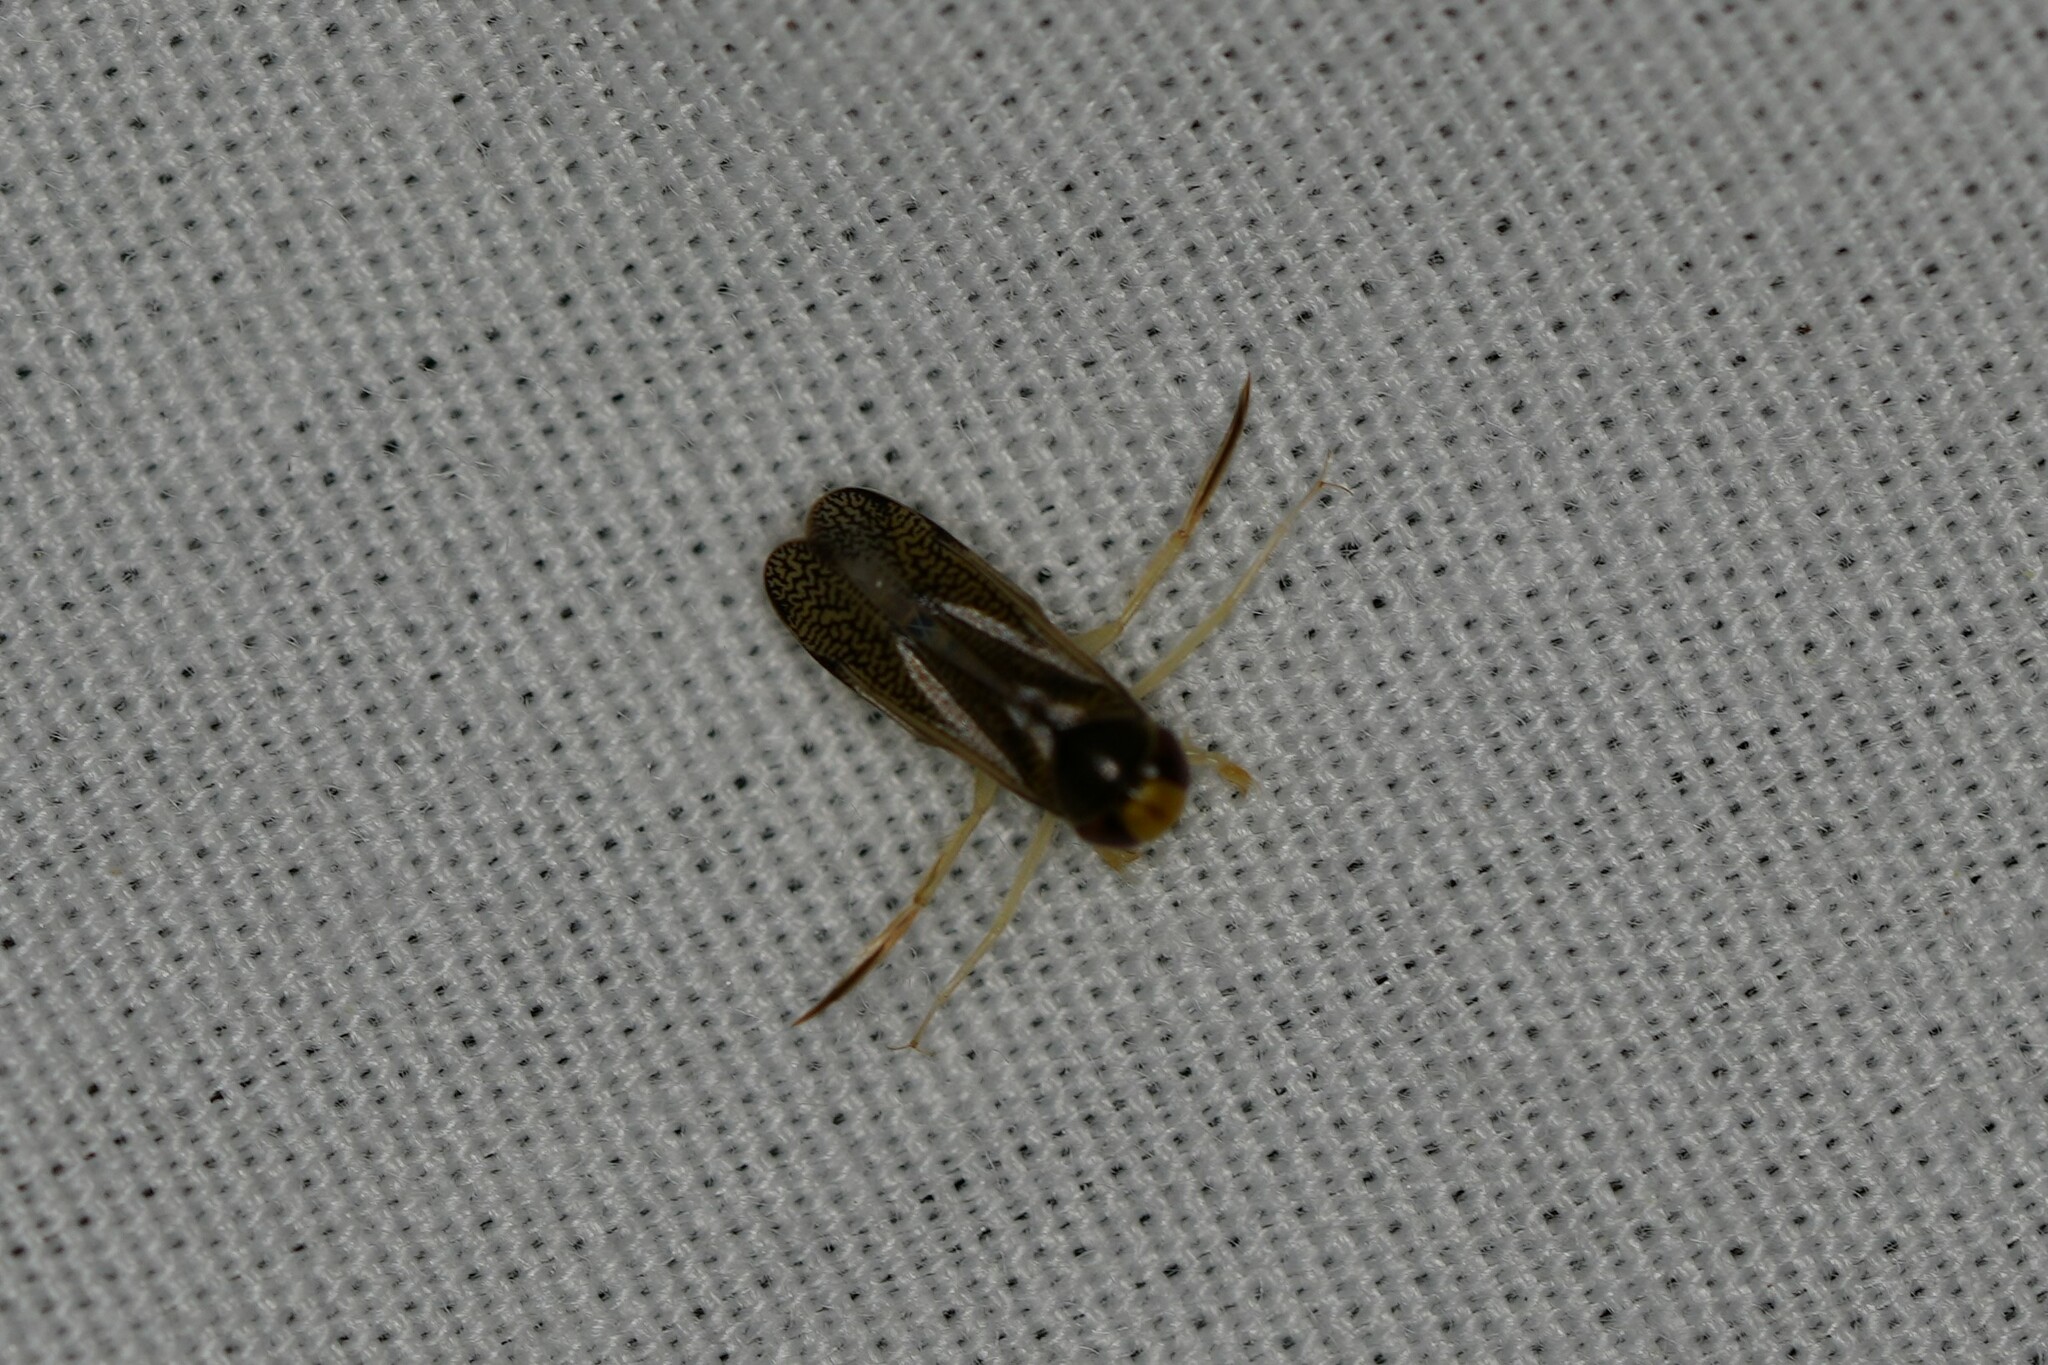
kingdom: Animalia
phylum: Arthropoda
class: Insecta
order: Hemiptera
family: Corixidae
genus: Trichocorixa
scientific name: Trichocorixa
